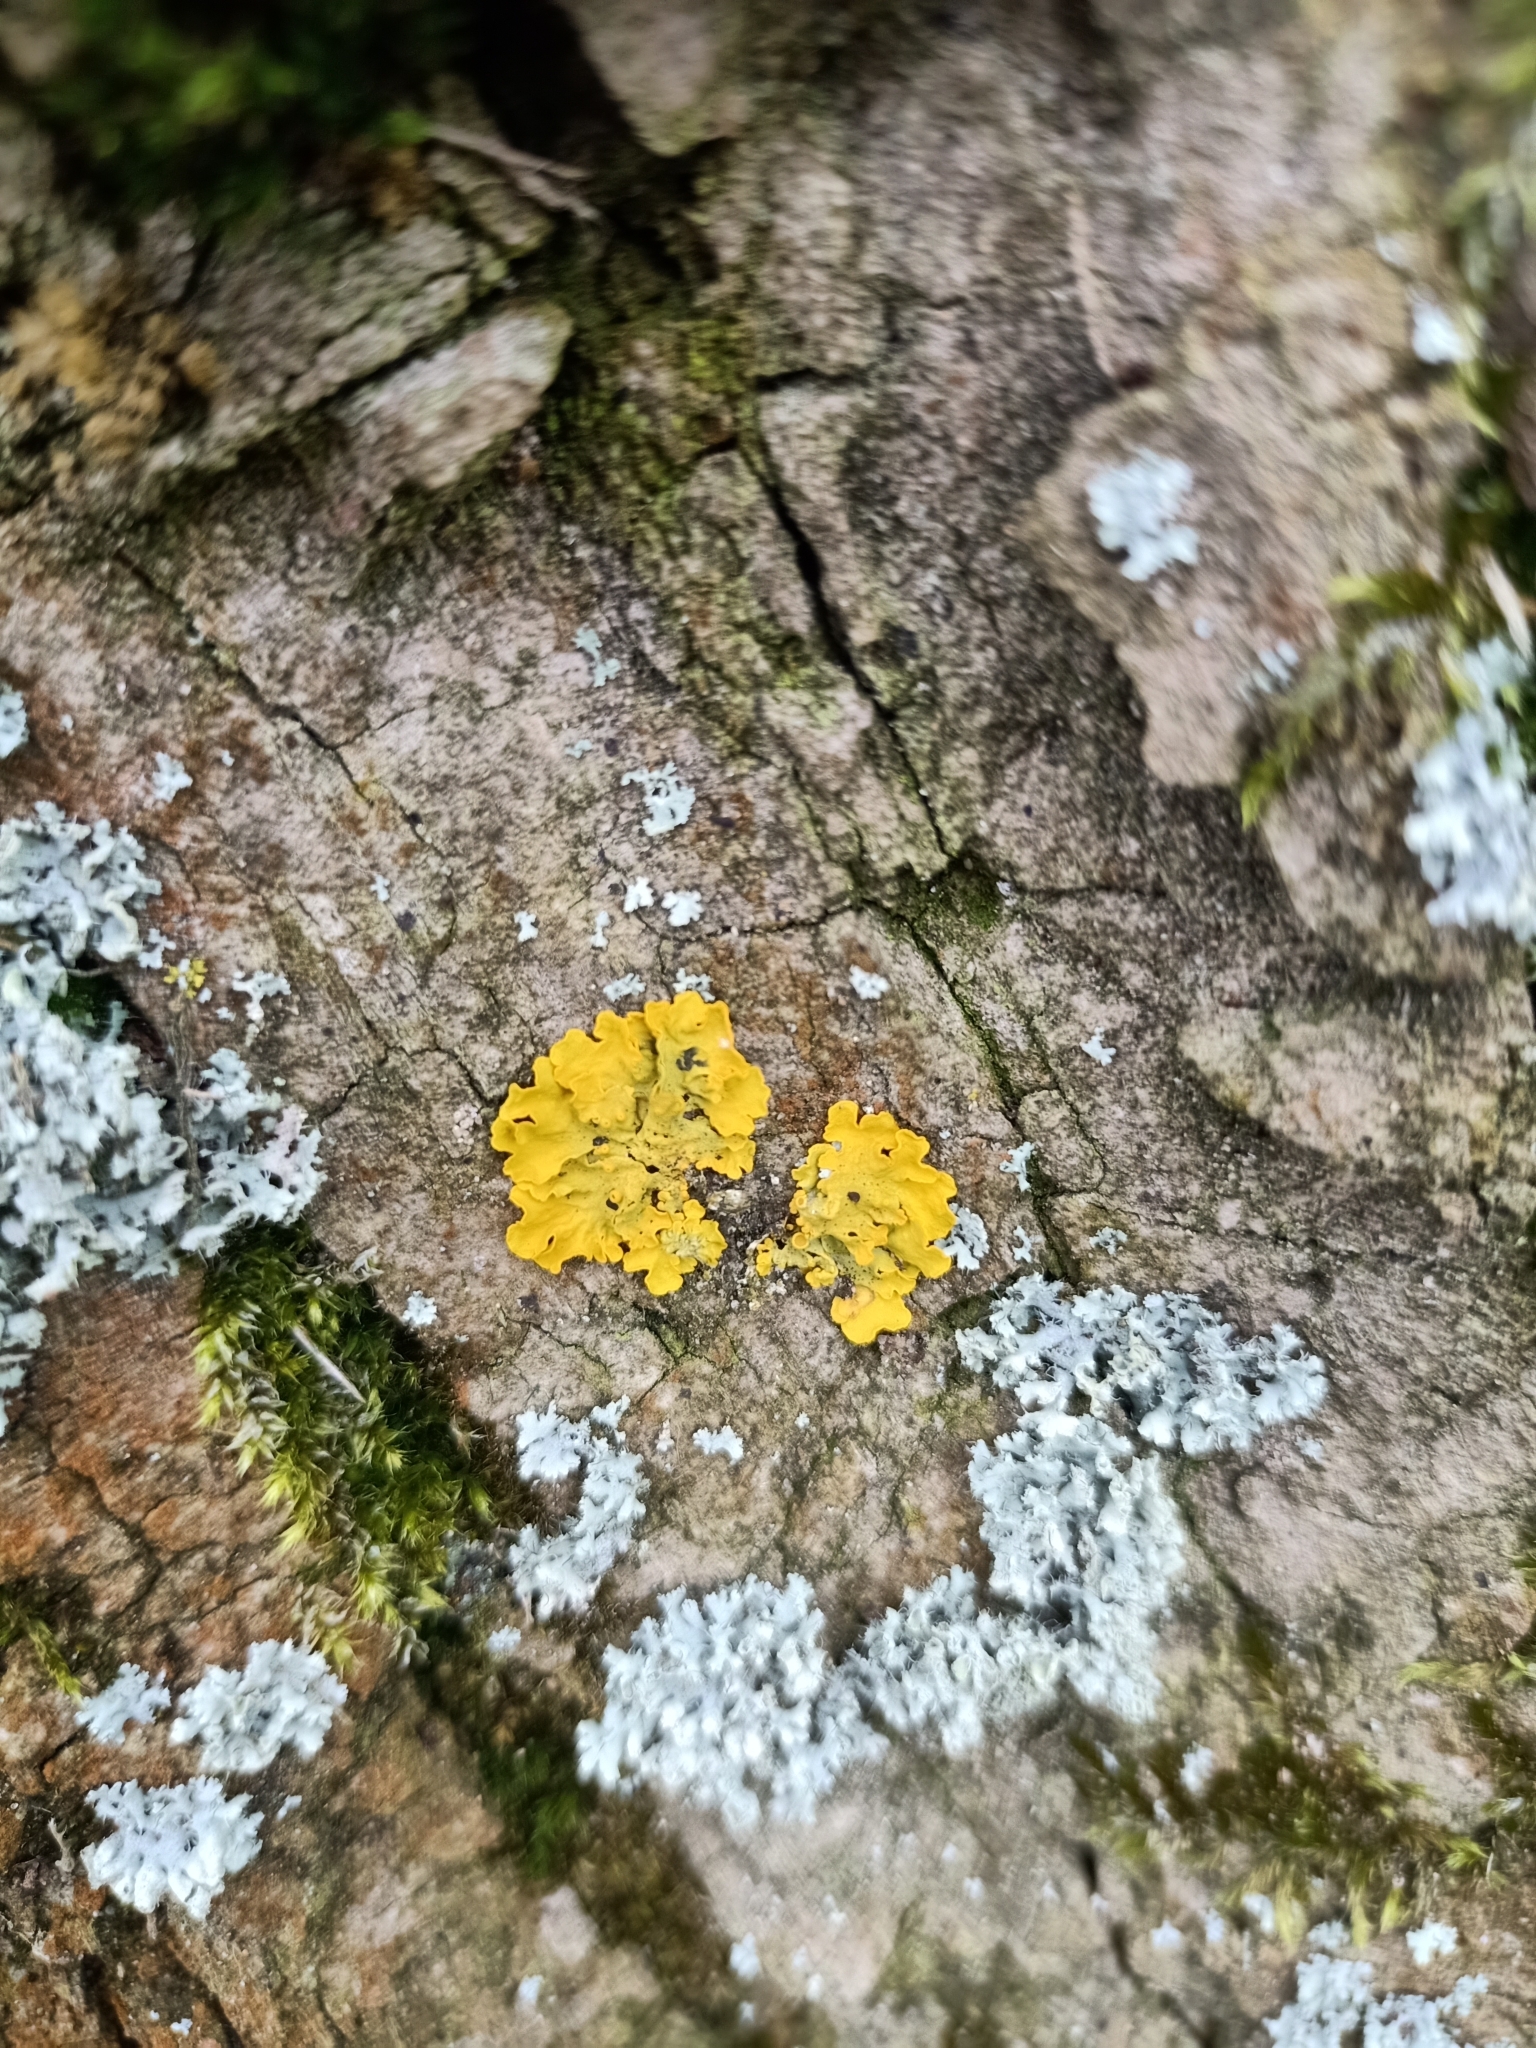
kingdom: Fungi
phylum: Ascomycota
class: Lecanoromycetes
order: Teloschistales
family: Teloschistaceae
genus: Xanthoria
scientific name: Xanthoria parietina
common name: Common orange lichen
